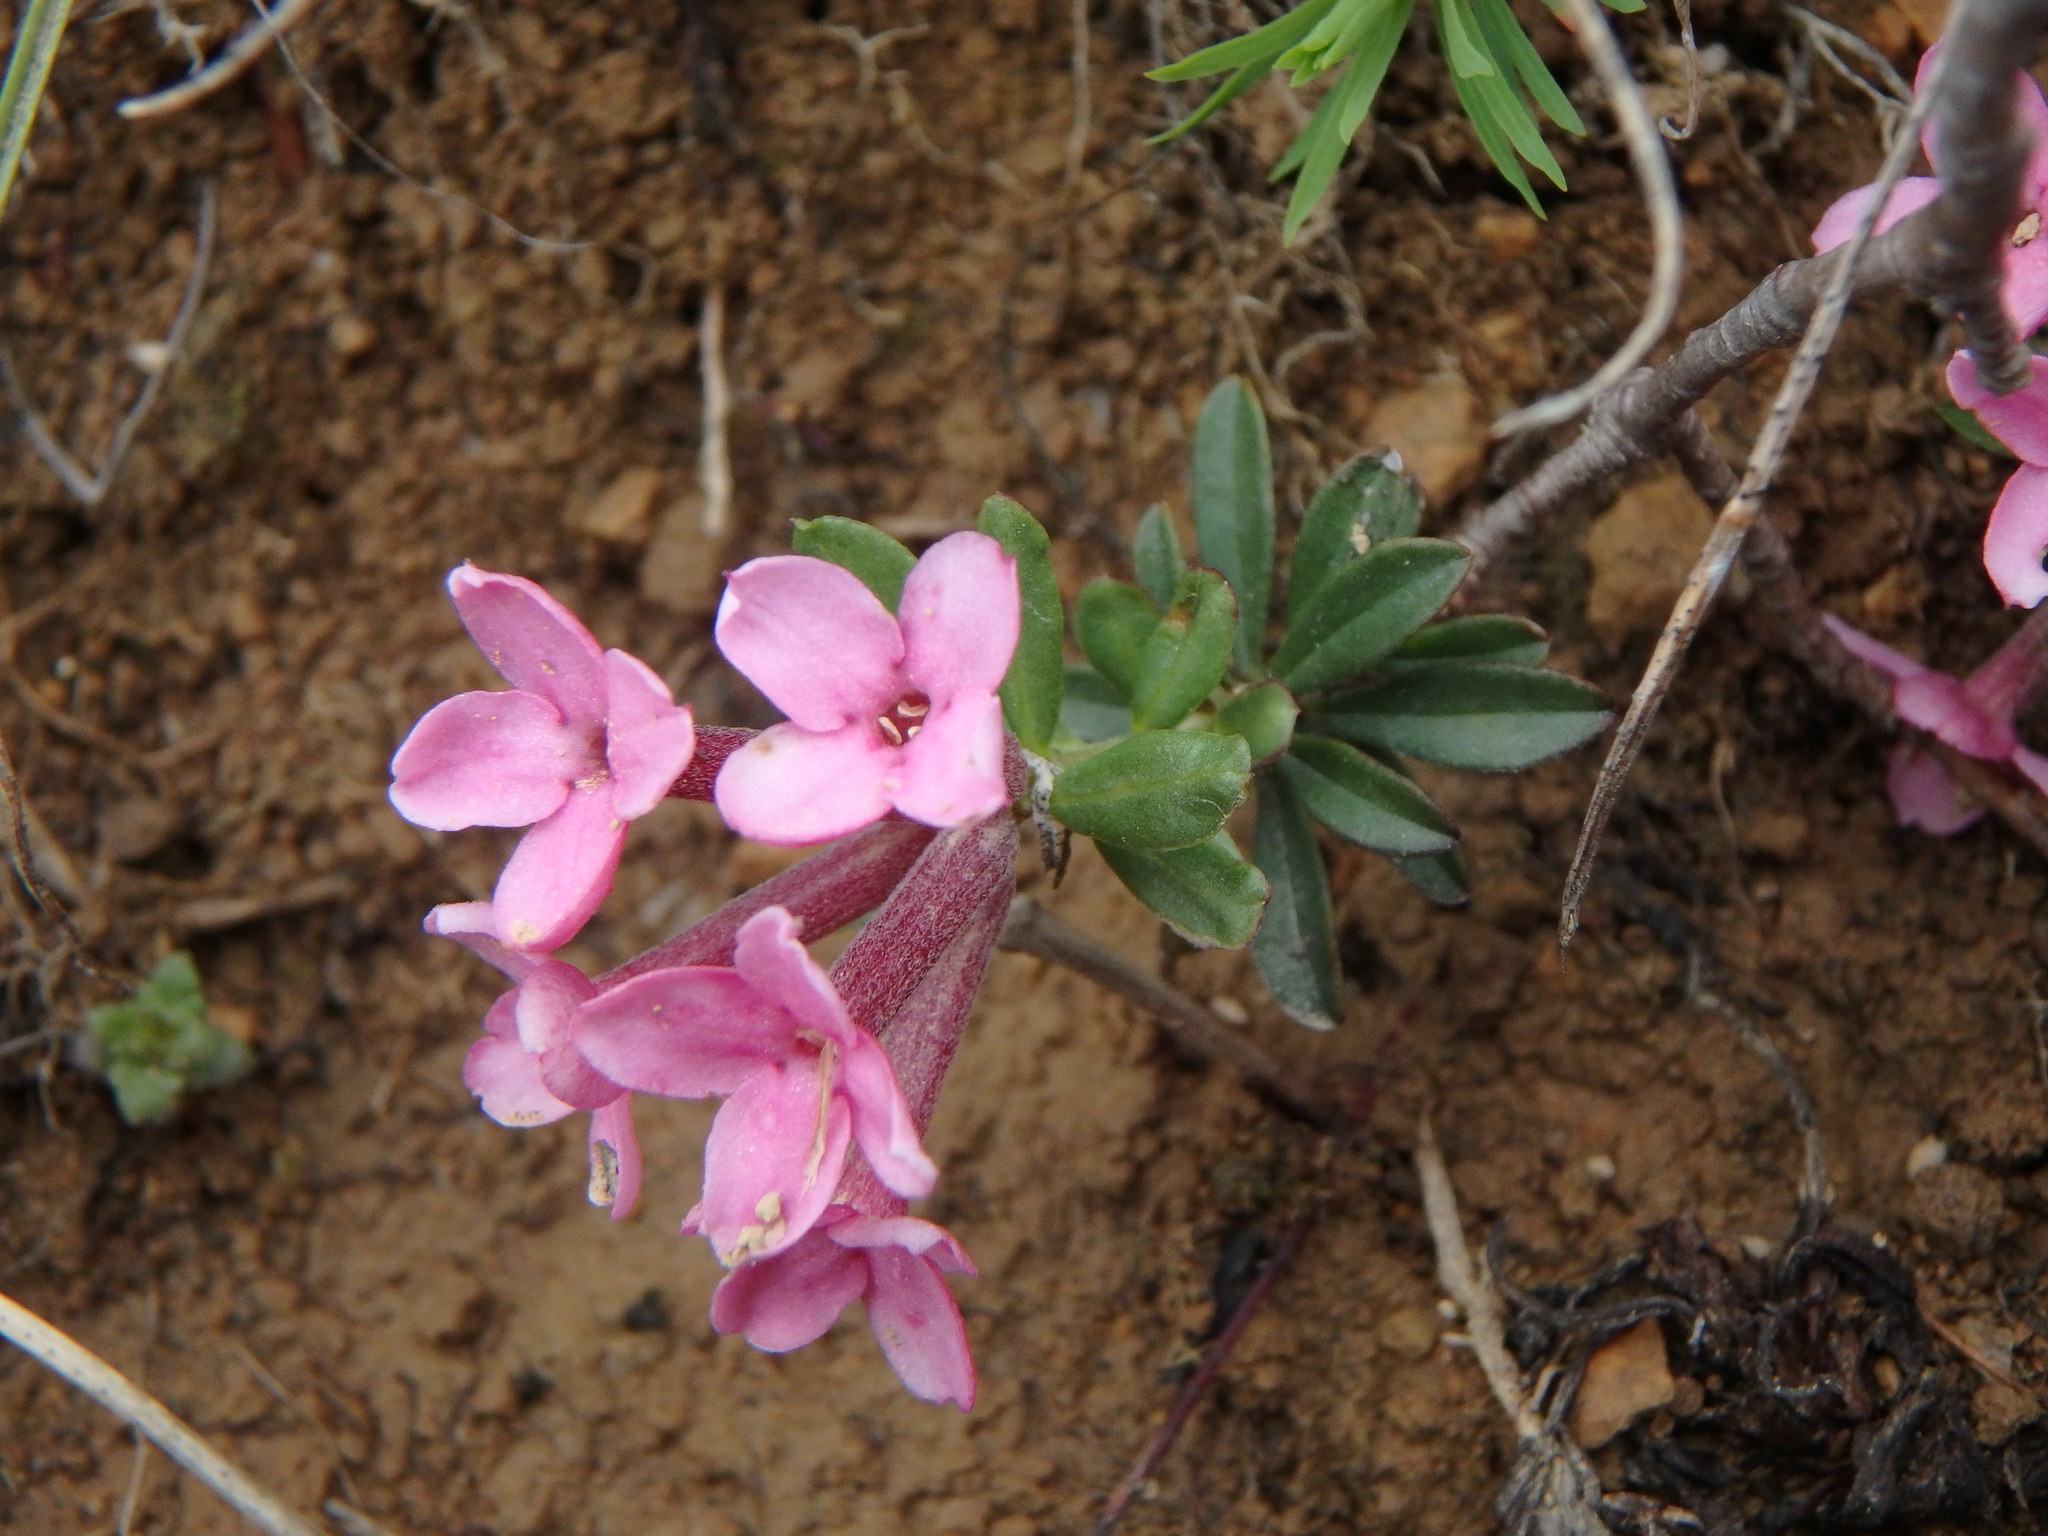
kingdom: Plantae
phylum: Tracheophyta
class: Magnoliopsida
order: Malvales
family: Thymelaeaceae
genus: Daphne
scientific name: Daphne cneorum
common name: Garland-flower
